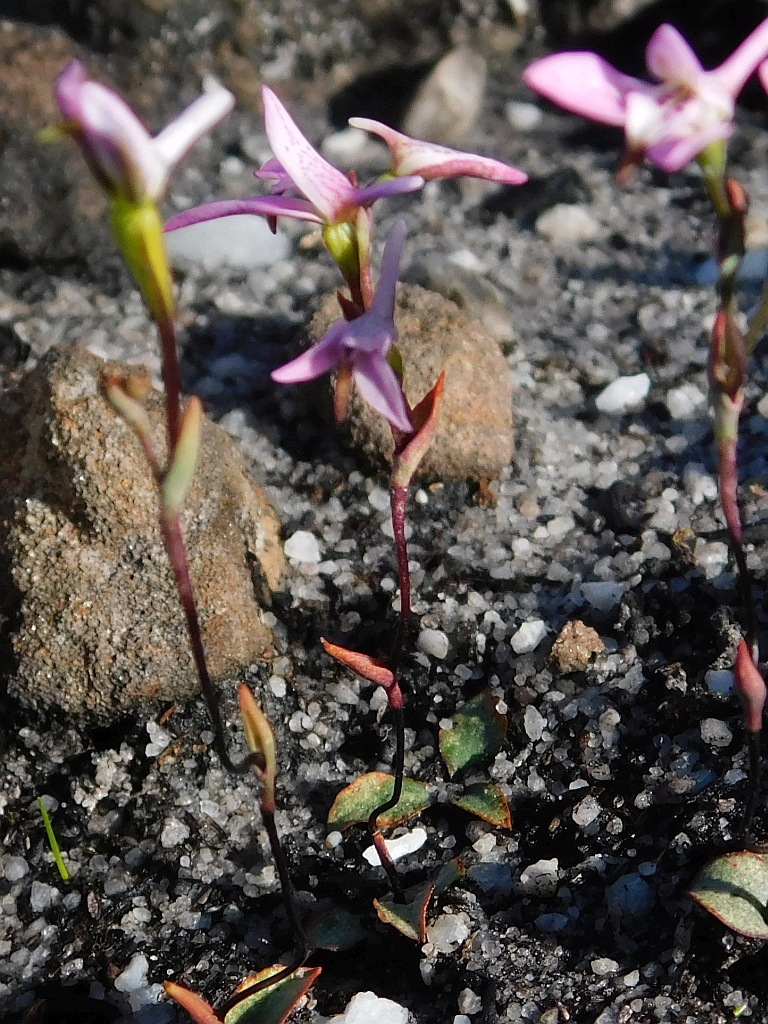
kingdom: Plantae
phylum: Tracheophyta
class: Liliopsida
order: Asparagales
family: Orchidaceae
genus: Disa
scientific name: Disa obliqua
